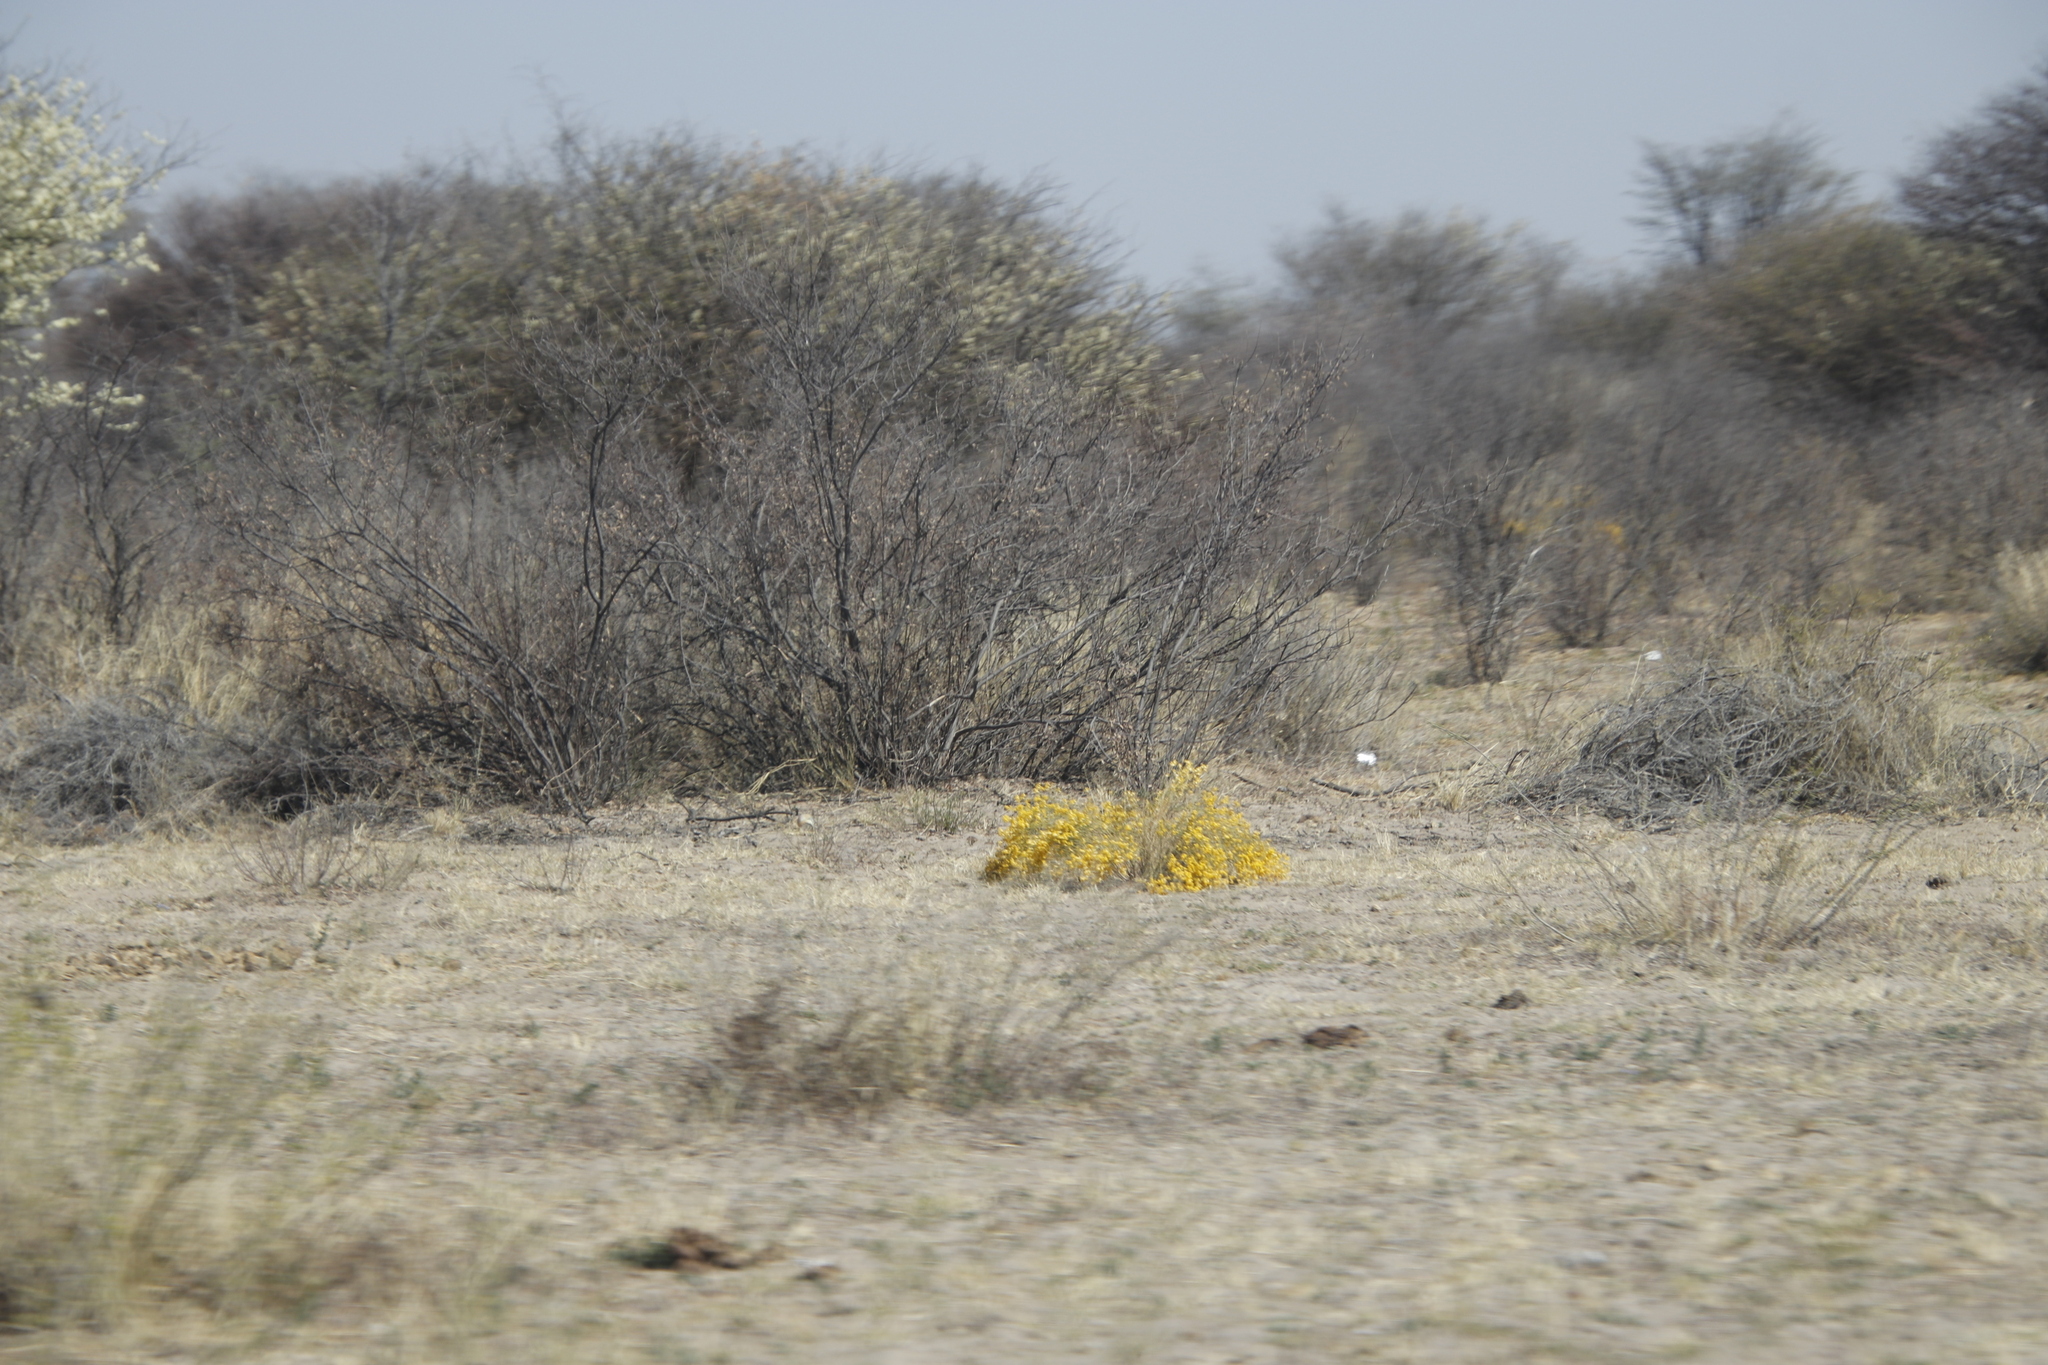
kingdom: Plantae
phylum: Tracheophyta
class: Magnoliopsida
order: Fabales
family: Fabaceae
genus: Senegalia
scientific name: Senegalia mellifera
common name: Hookthorn
